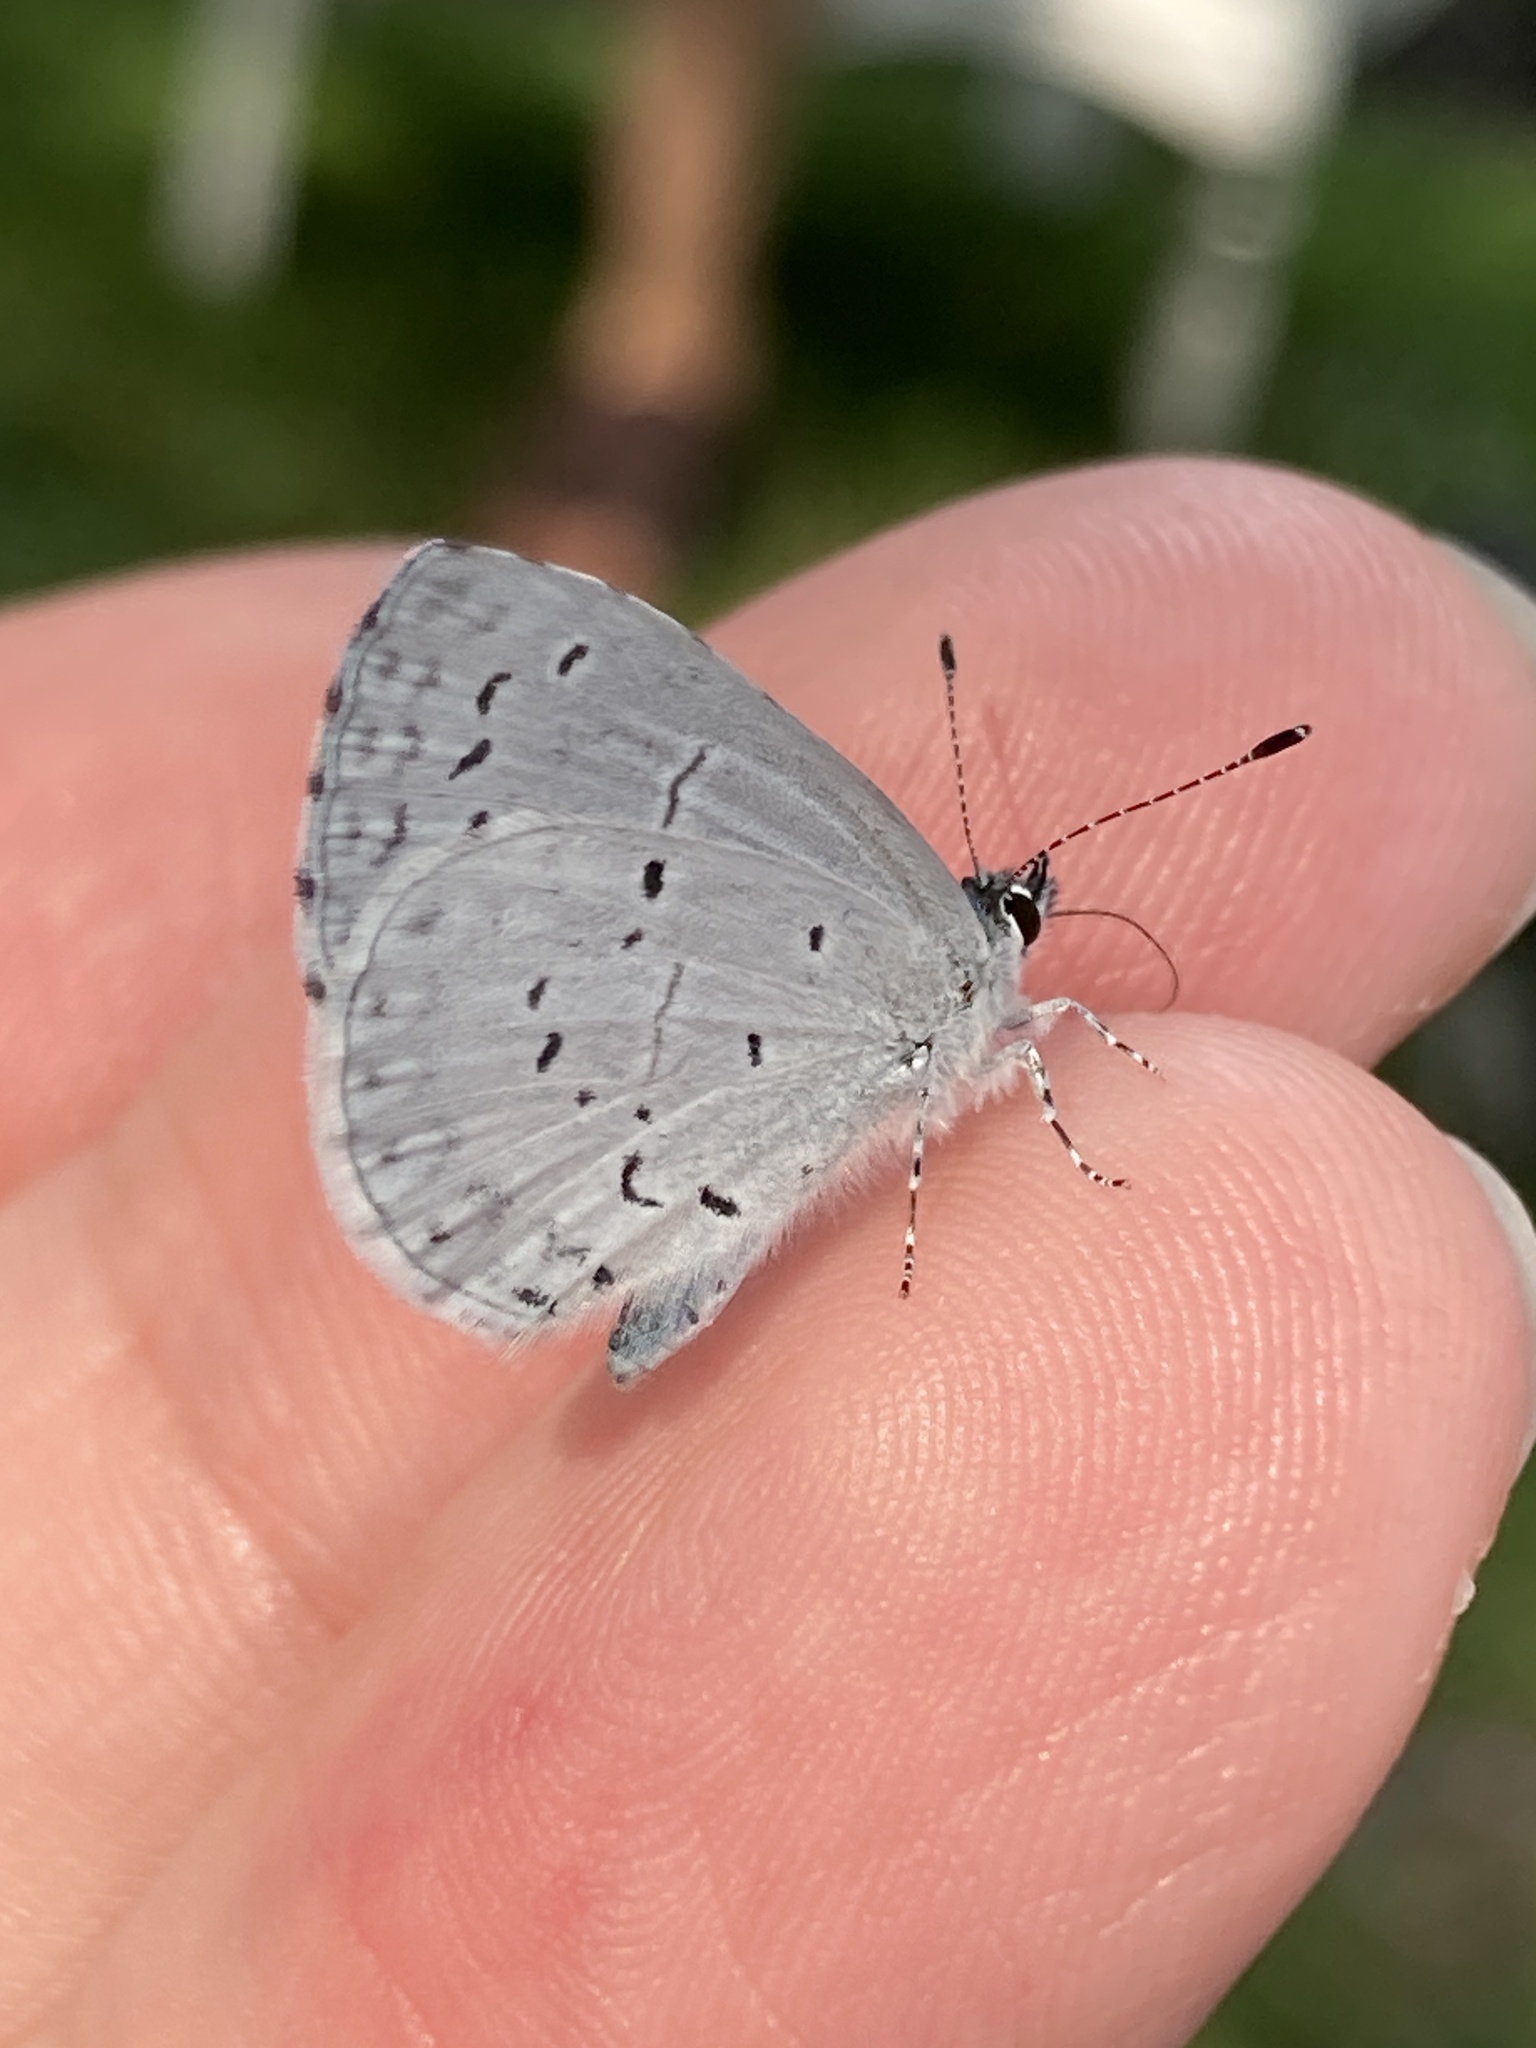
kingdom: Animalia
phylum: Arthropoda
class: Insecta
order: Lepidoptera
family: Lycaenidae
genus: Cyaniris
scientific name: Cyaniris neglecta
